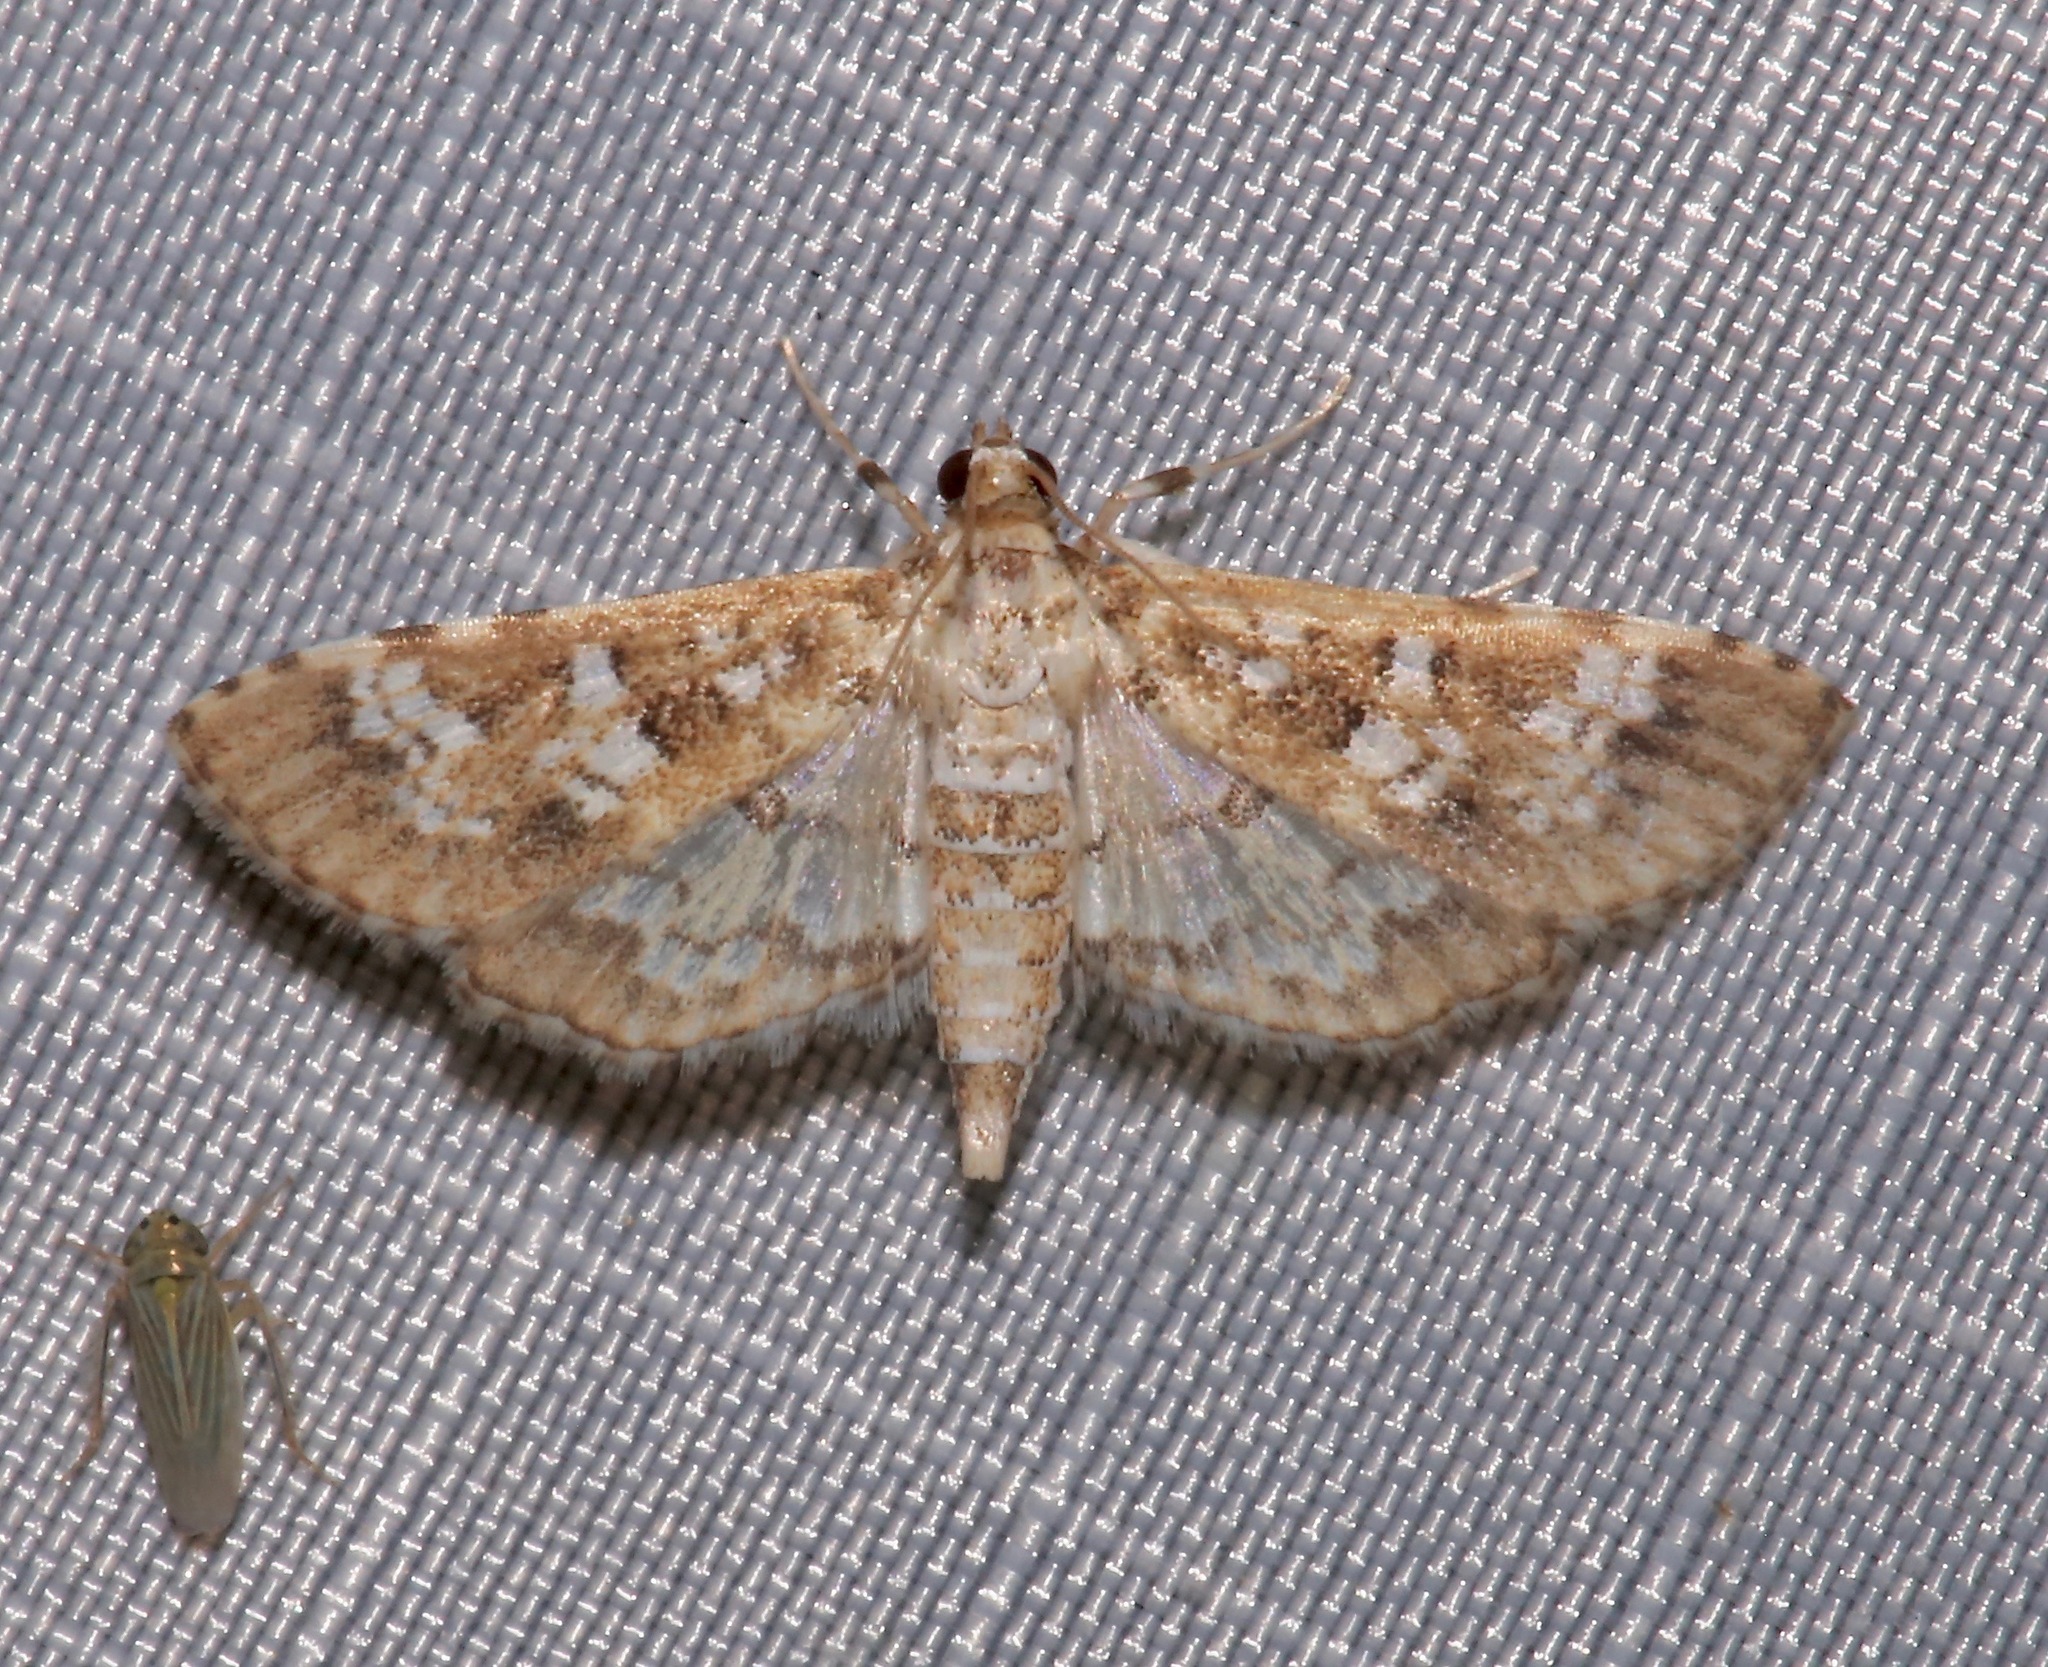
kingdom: Animalia
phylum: Arthropoda
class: Insecta
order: Lepidoptera
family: Crambidae
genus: Samea
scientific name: Samea multiplicalis
